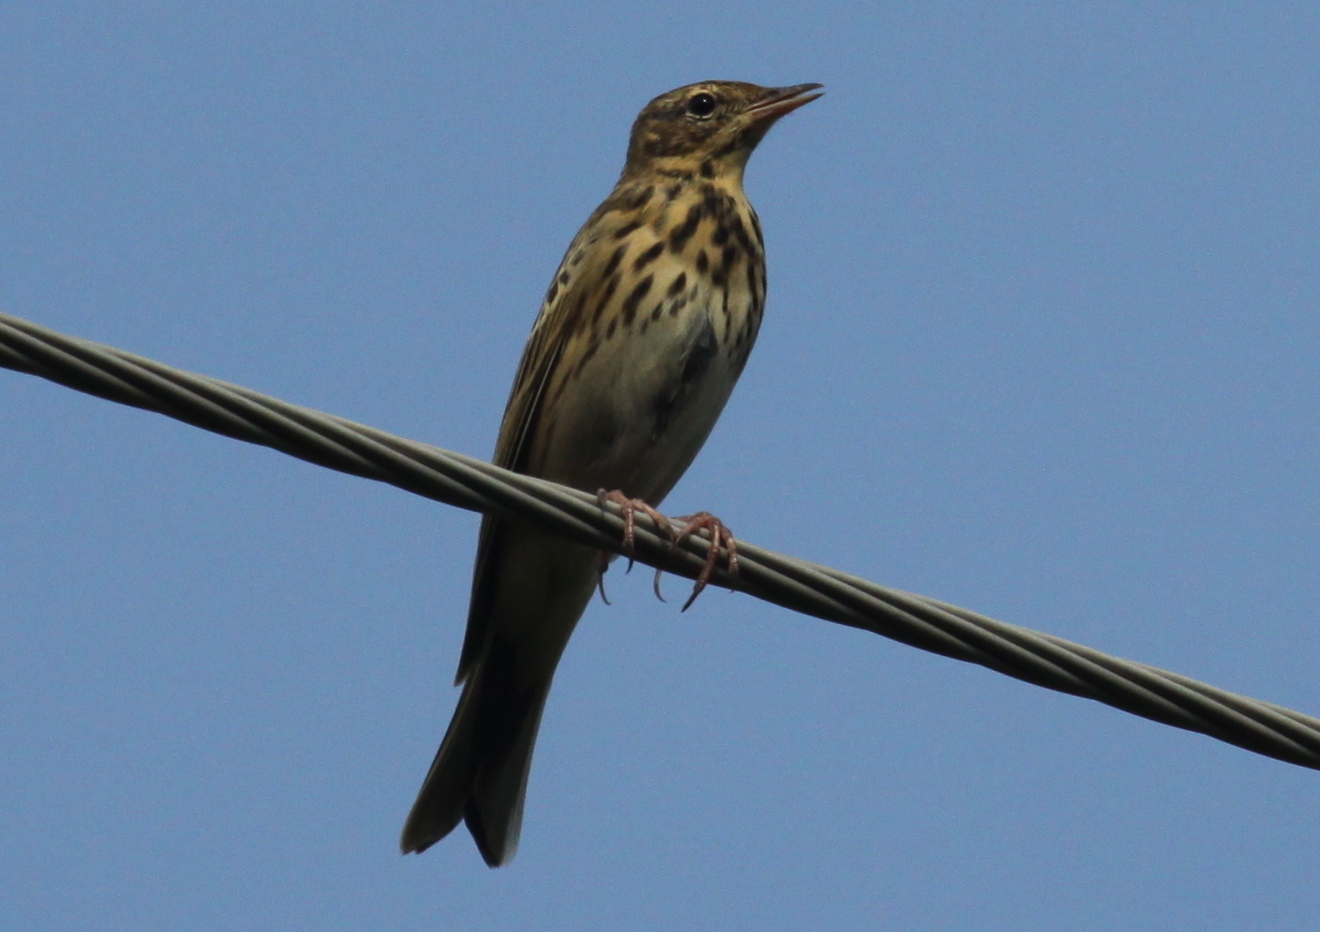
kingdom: Animalia
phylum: Chordata
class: Aves
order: Passeriformes
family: Motacillidae
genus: Anthus
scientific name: Anthus trivialis
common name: Tree pipit
